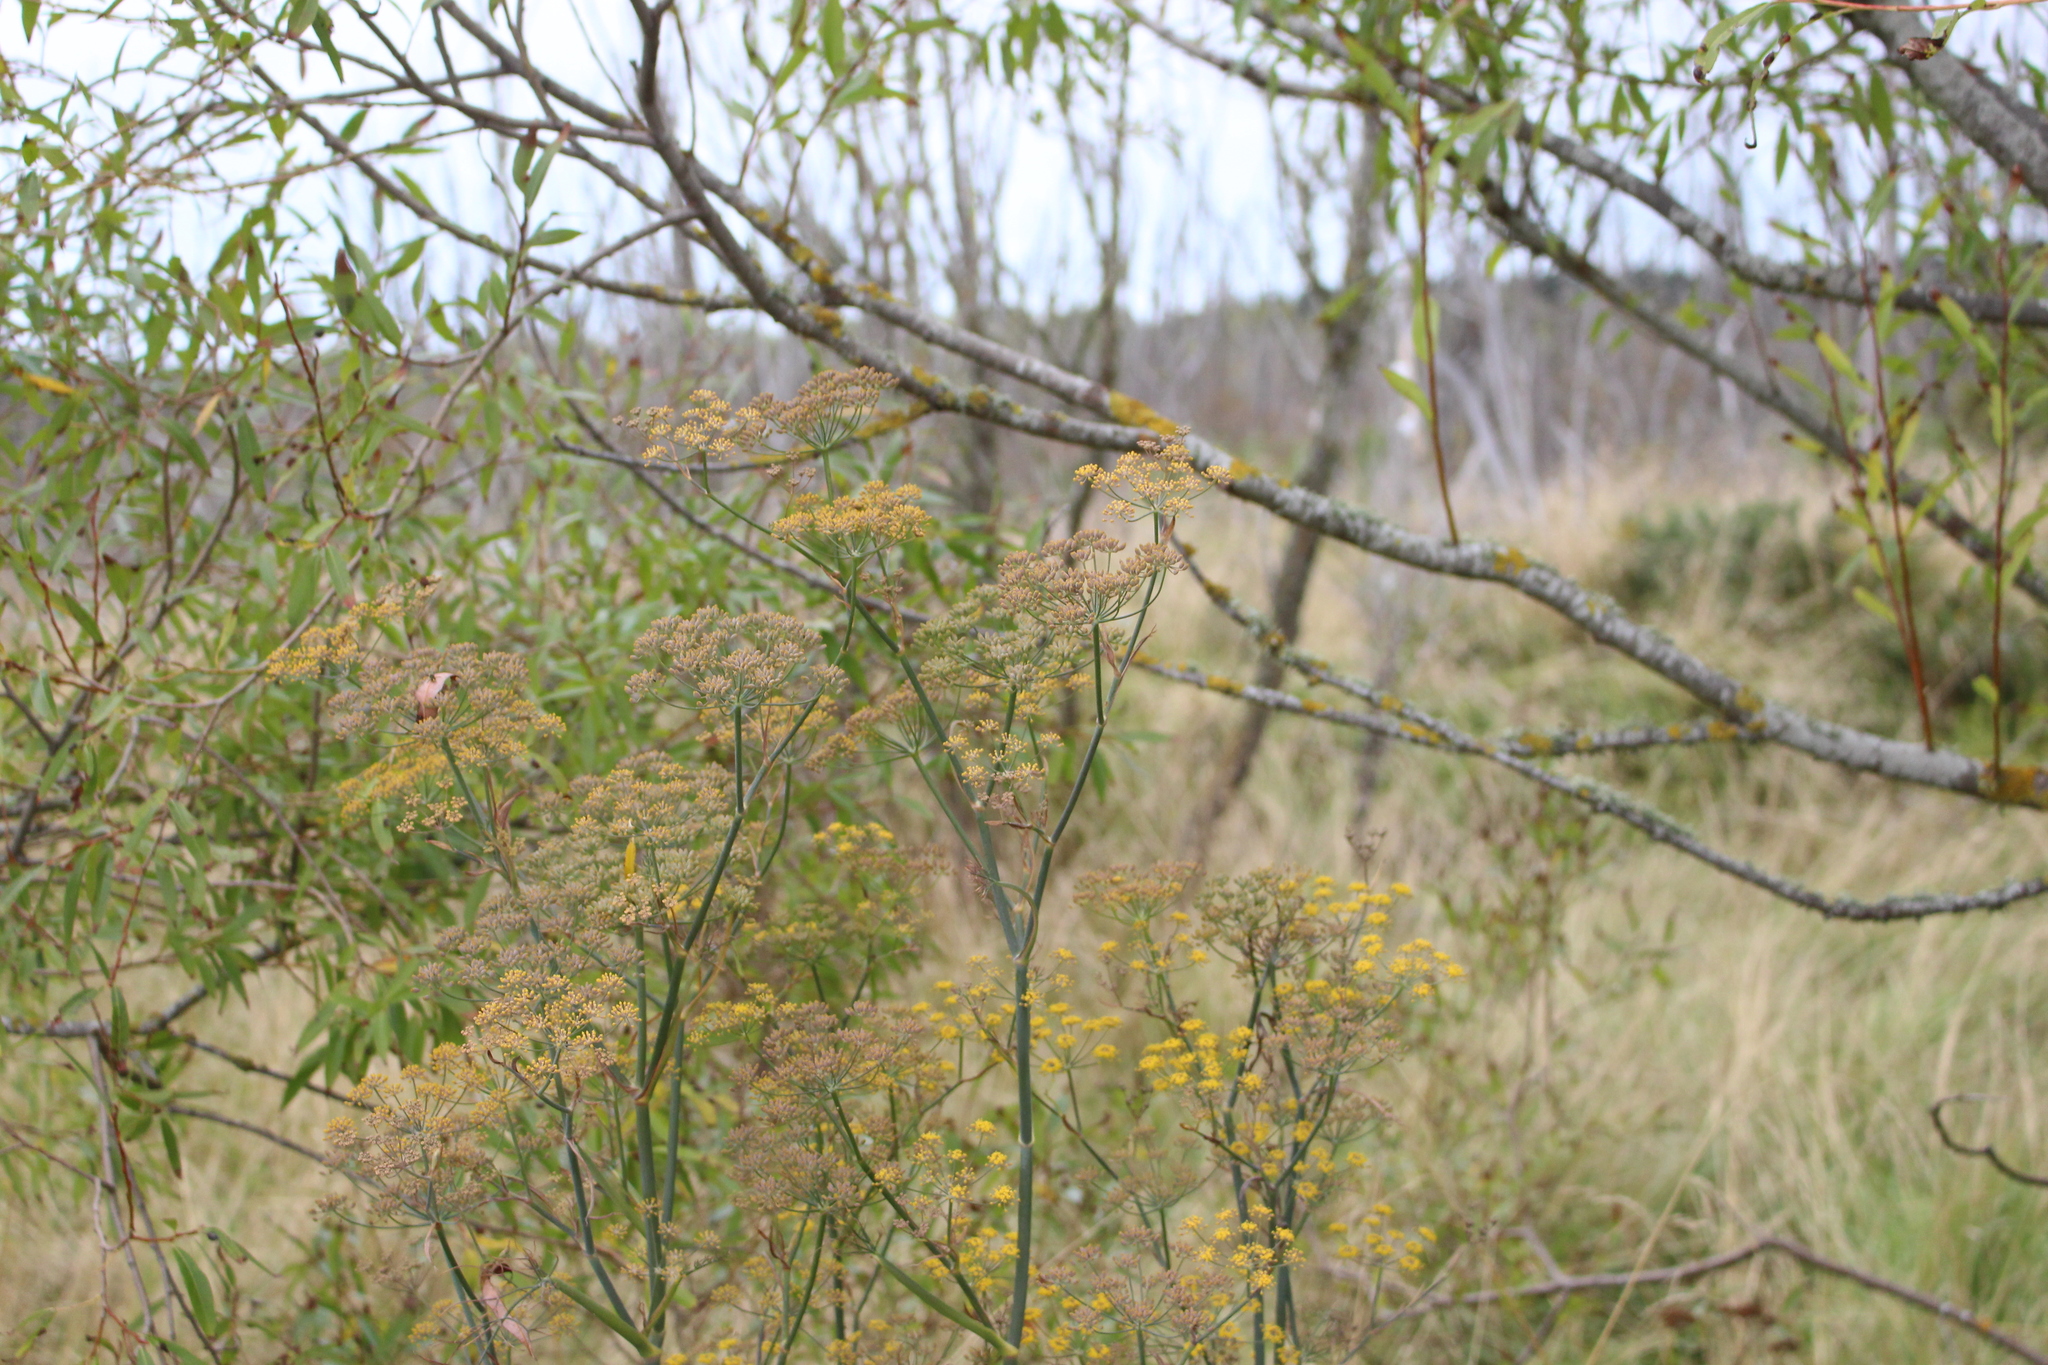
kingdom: Plantae
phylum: Tracheophyta
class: Magnoliopsida
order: Apiales
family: Apiaceae
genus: Foeniculum
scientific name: Foeniculum vulgare
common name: Fennel
